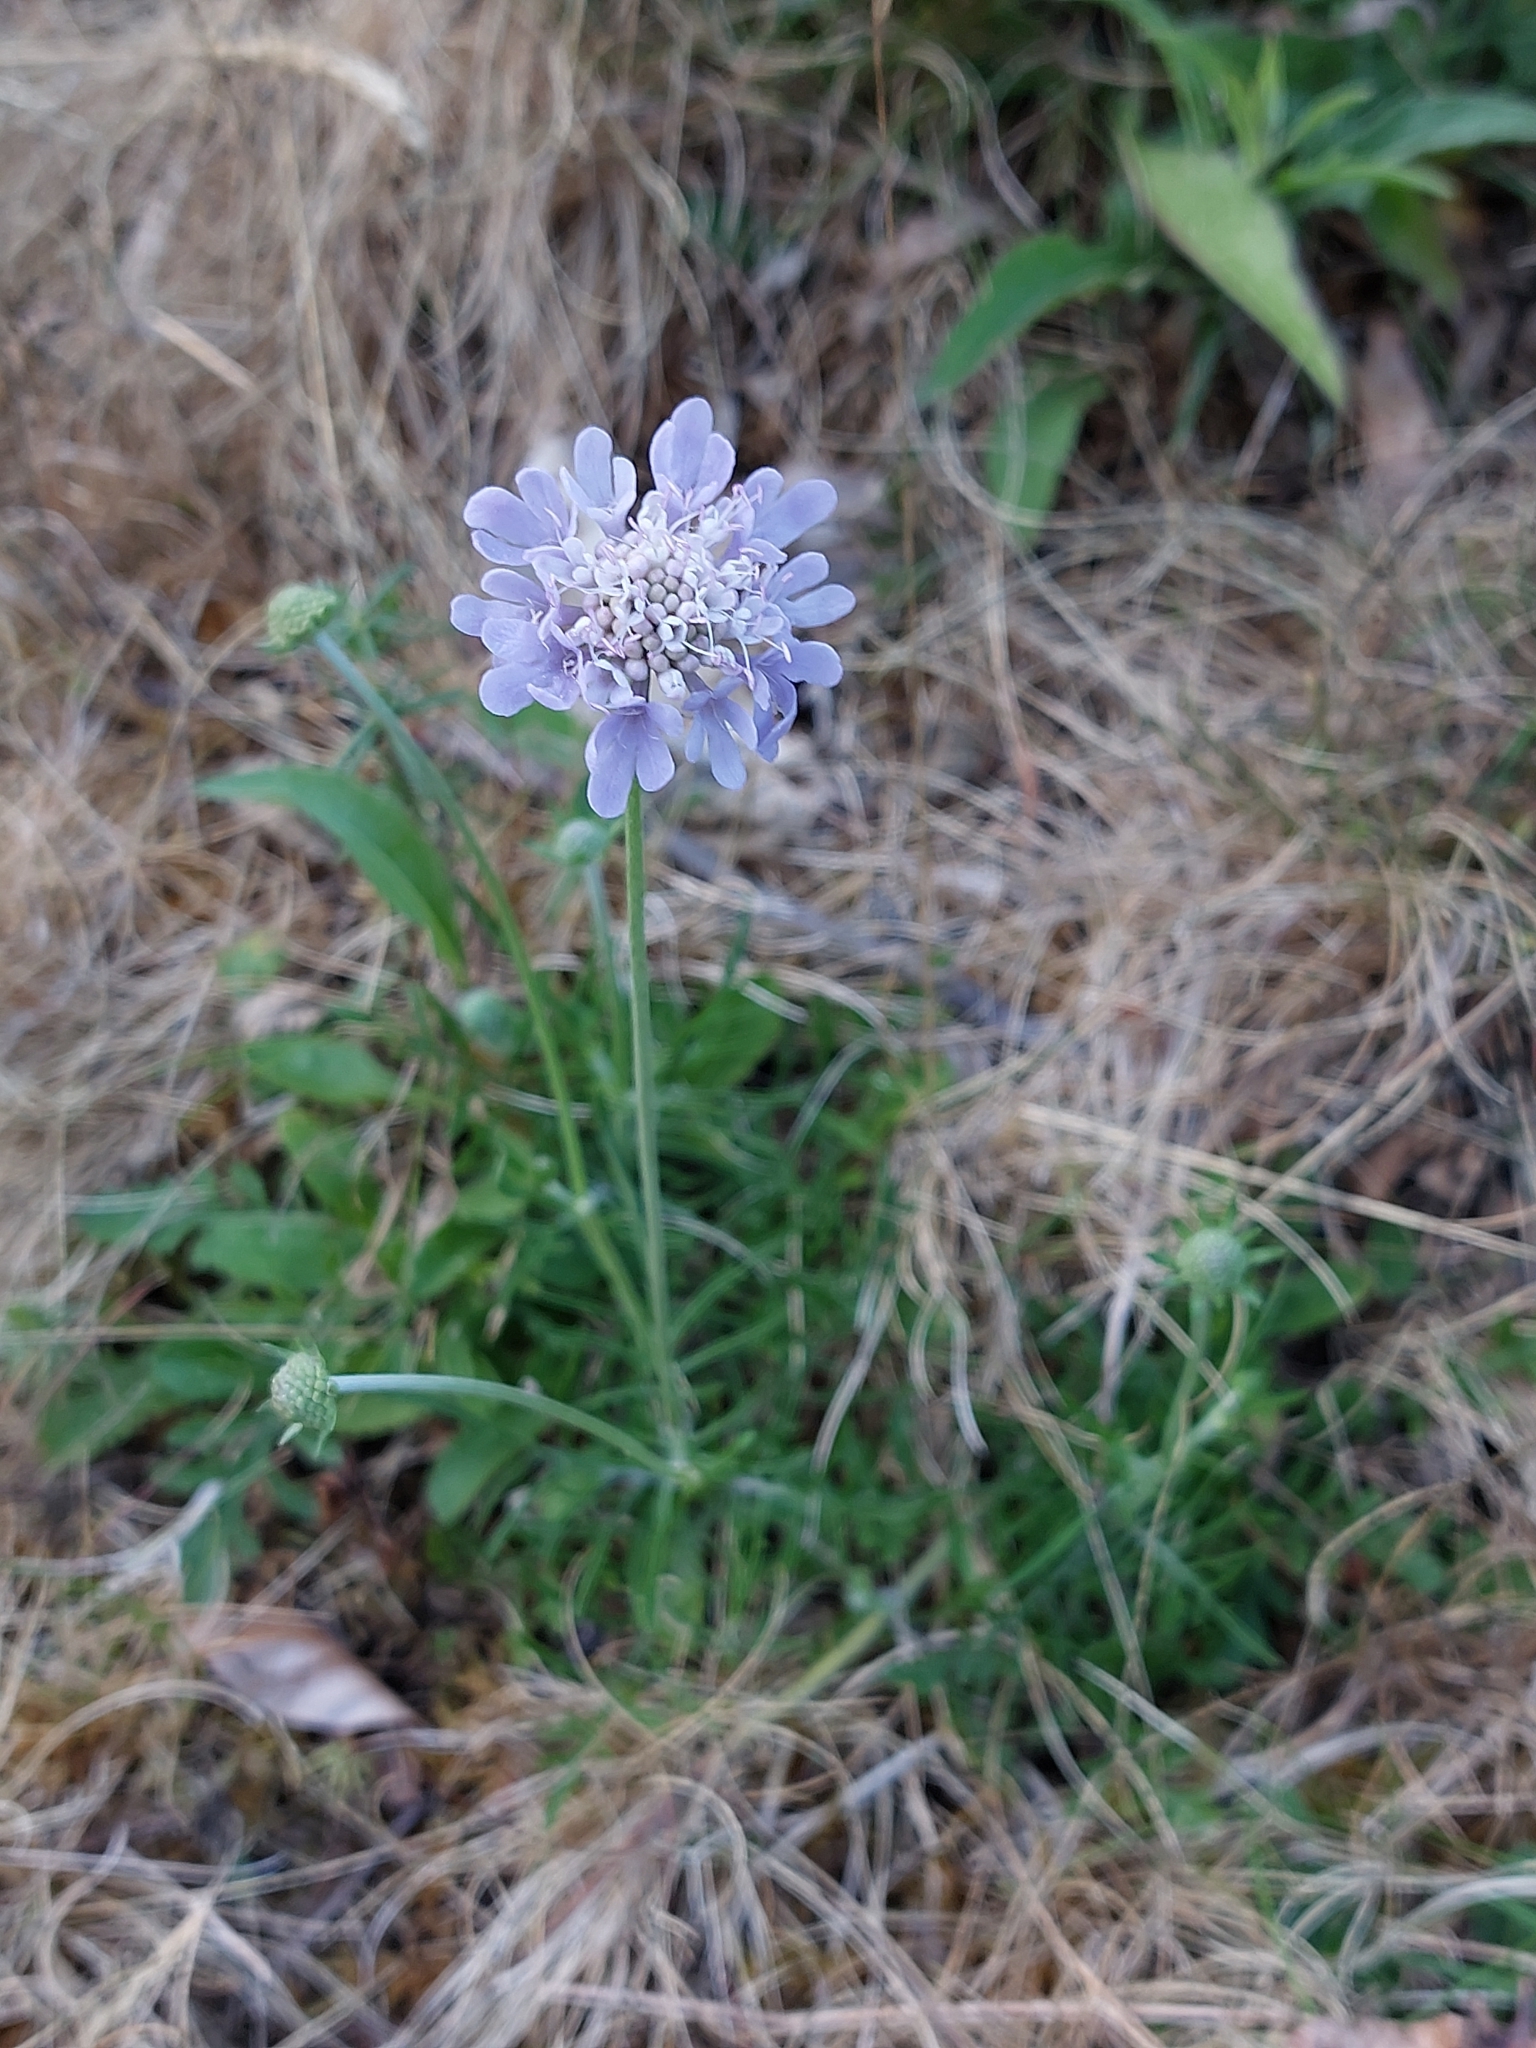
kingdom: Plantae
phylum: Tracheophyta
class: Magnoliopsida
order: Dipsacales
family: Caprifoliaceae
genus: Scabiosa
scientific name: Scabiosa columbaria
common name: Small scabious
